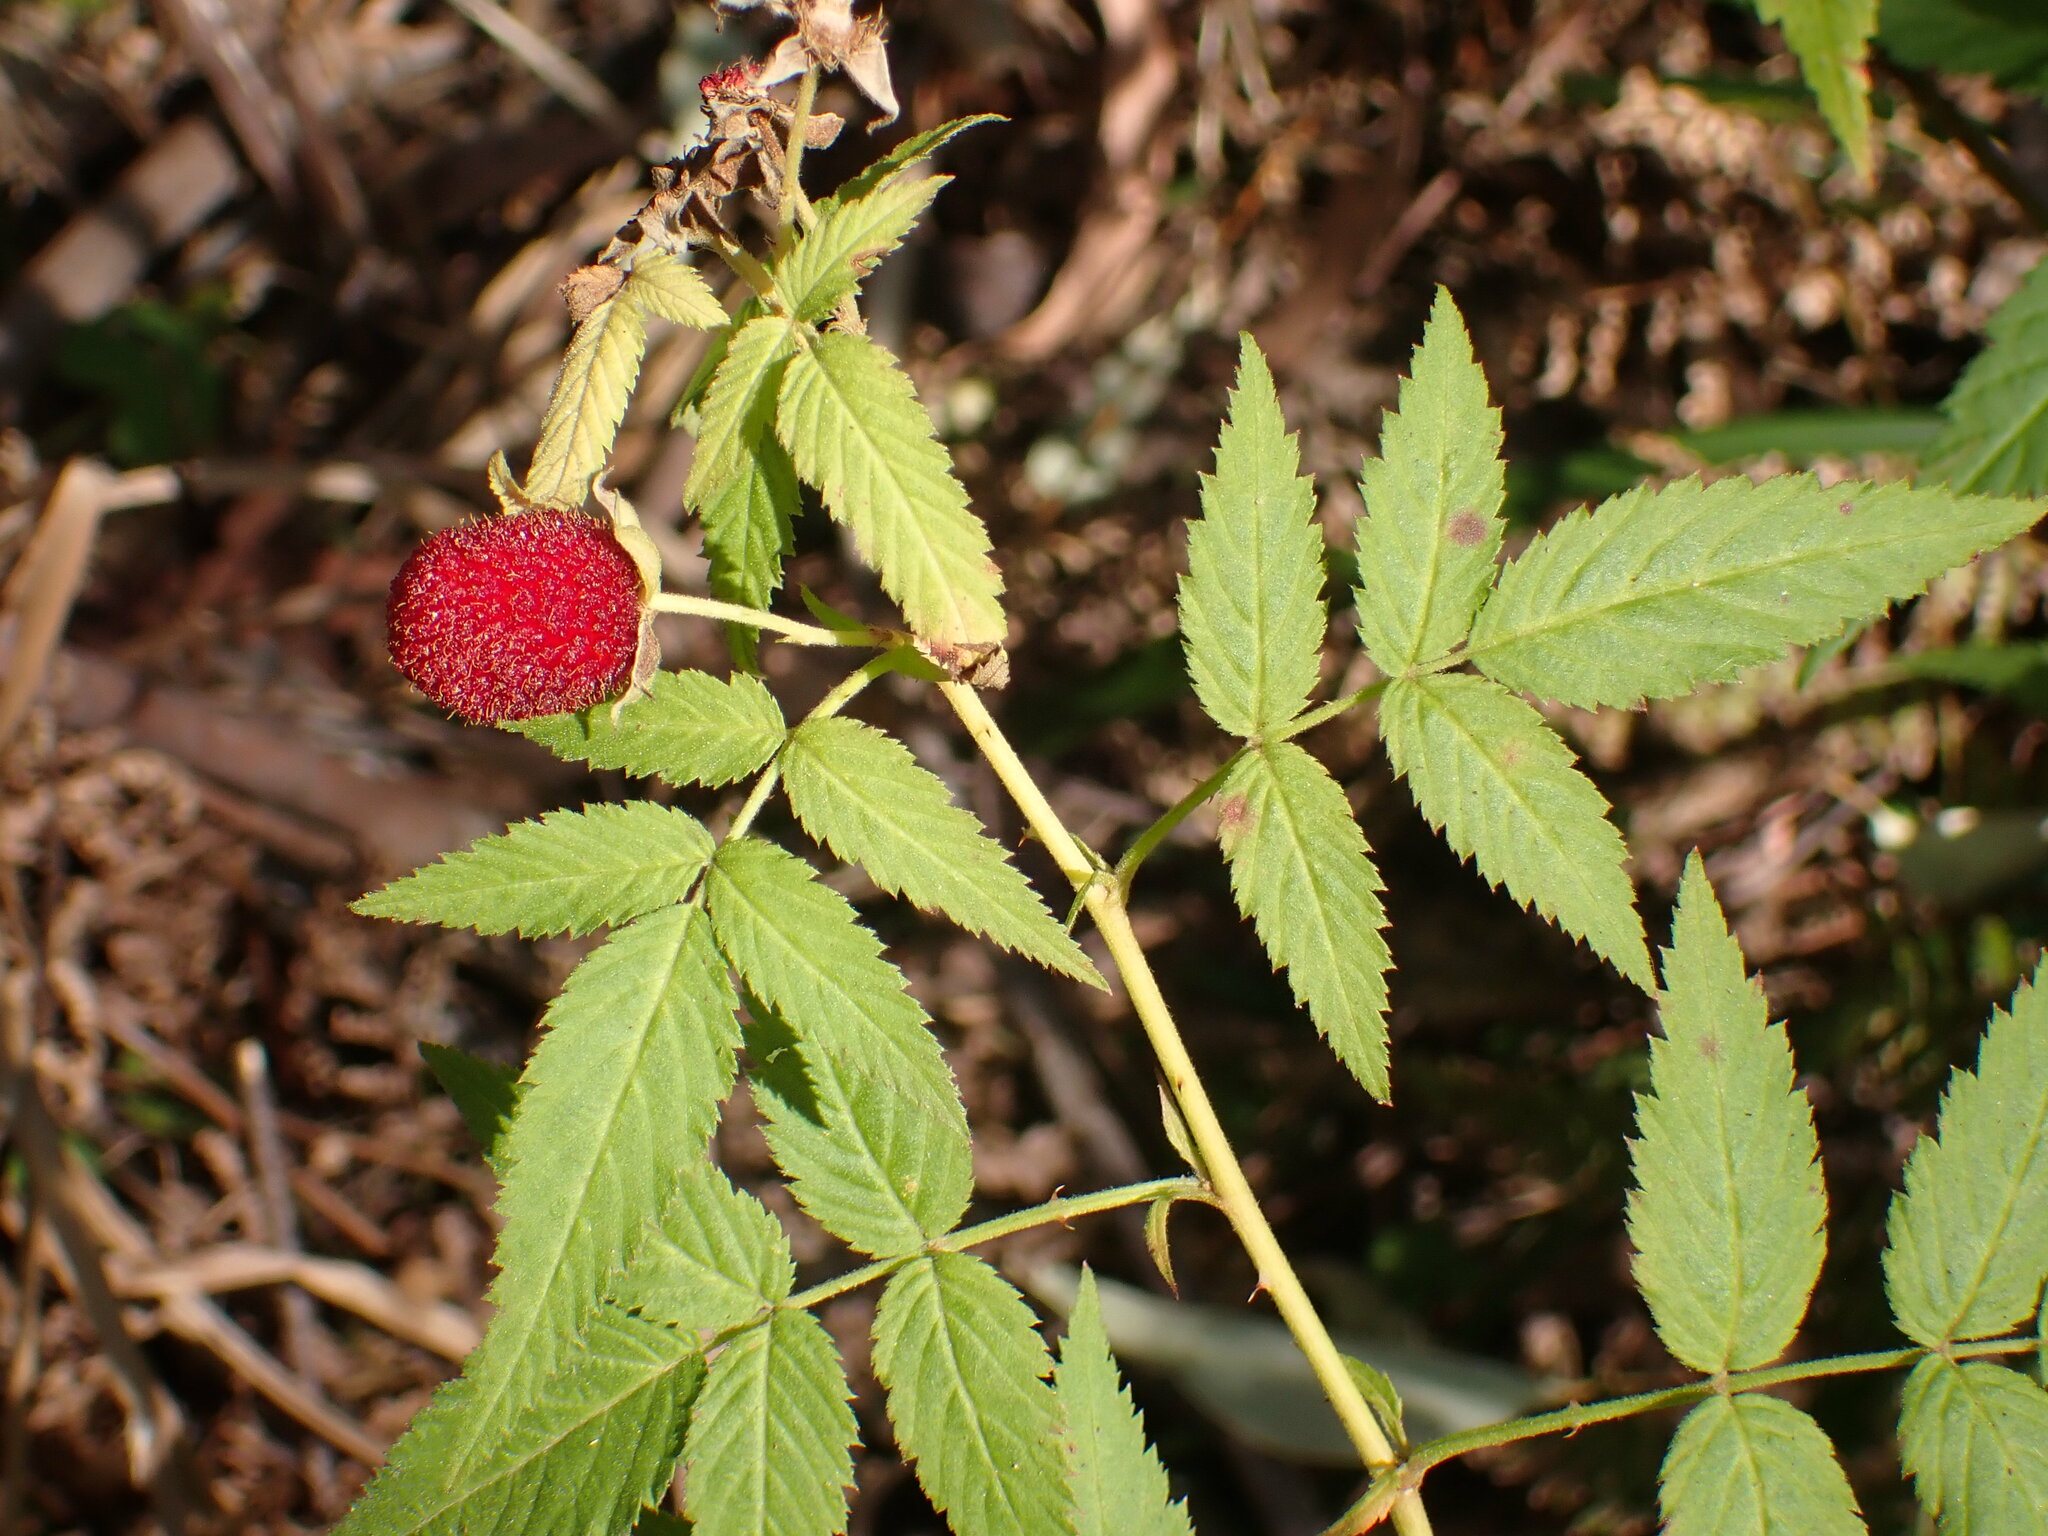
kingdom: Plantae
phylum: Tracheophyta
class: Magnoliopsida
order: Rosales
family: Rosaceae
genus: Rubus
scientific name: Rubus rosifolius
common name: Roseleaf raspberry
